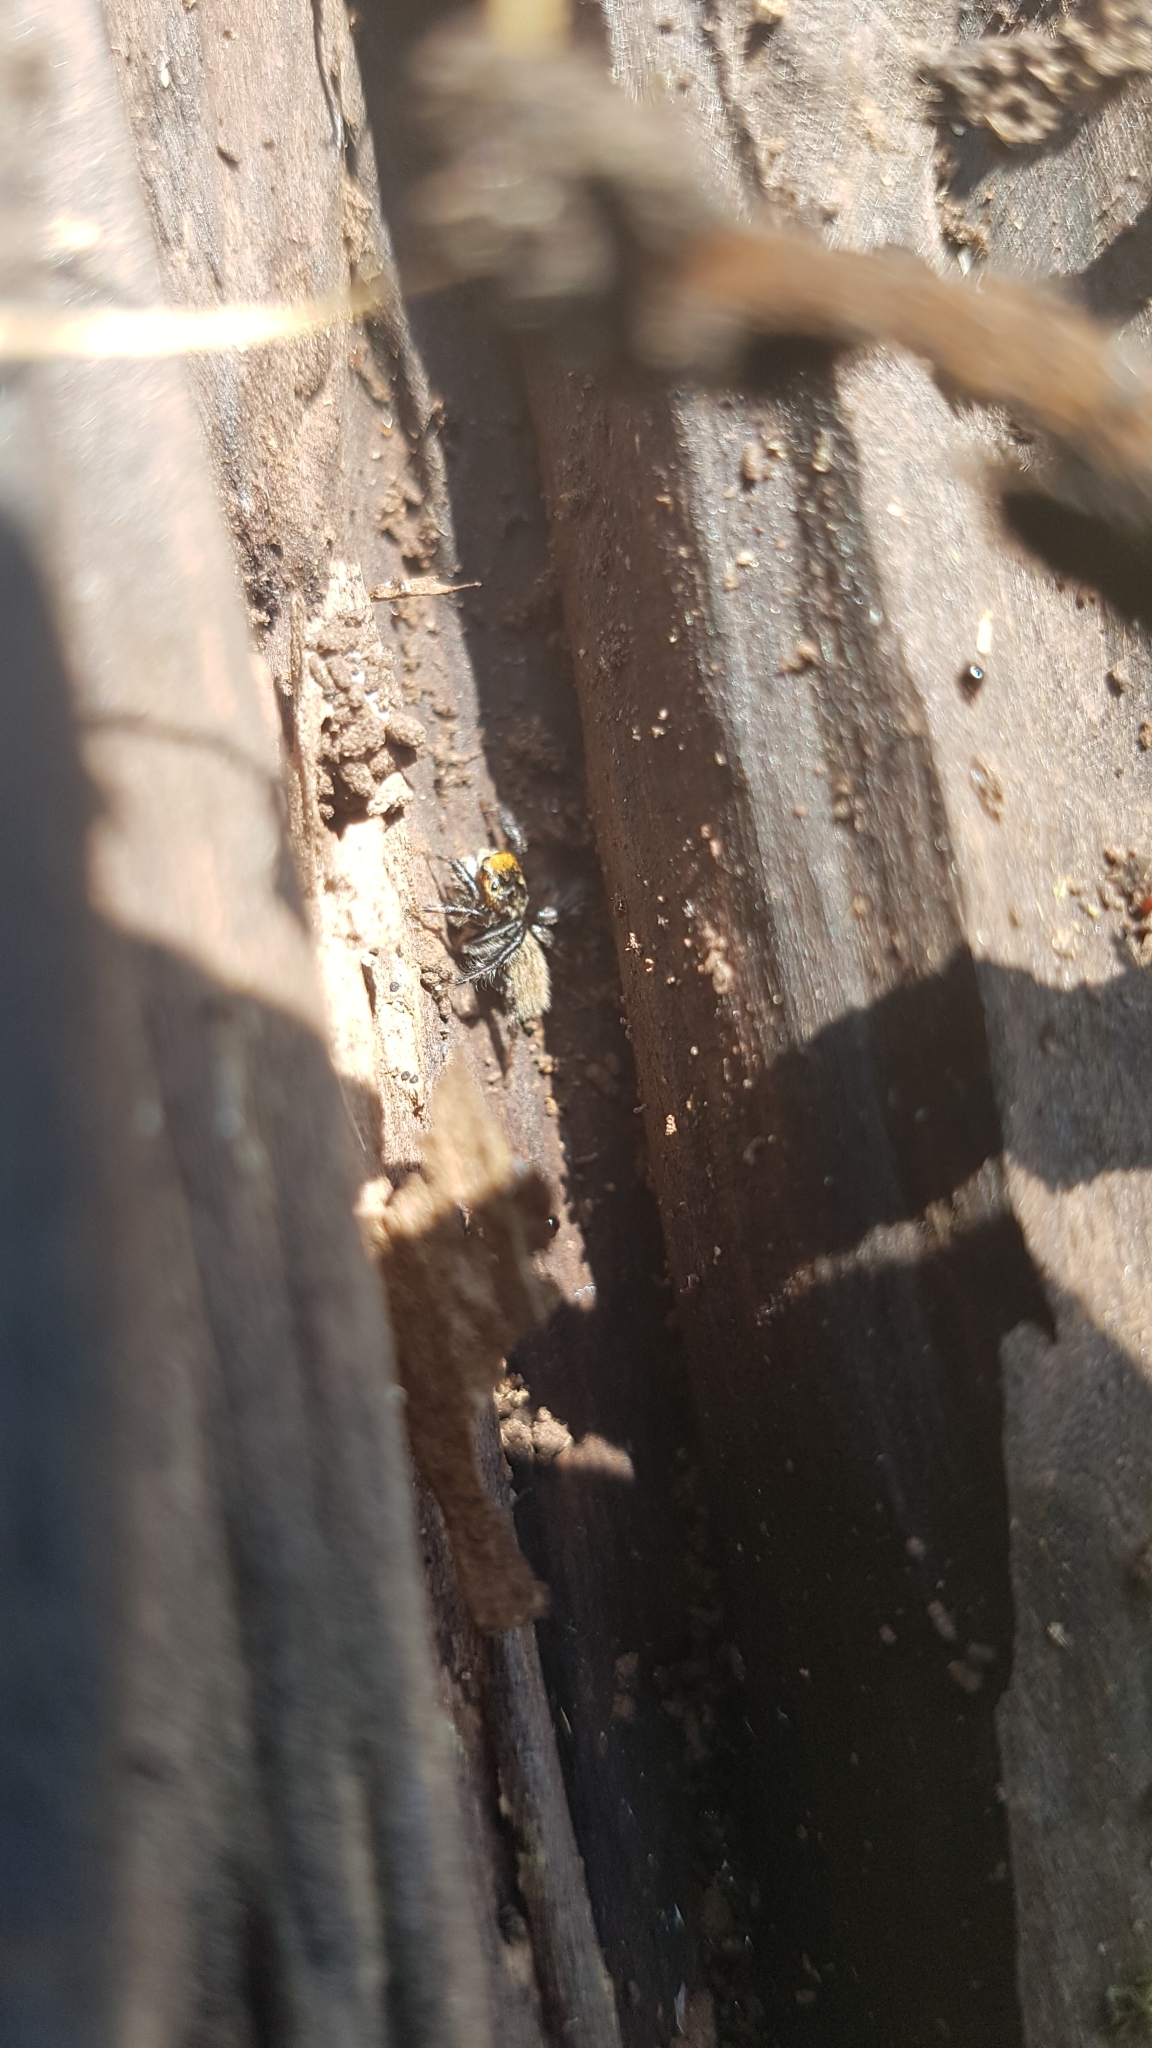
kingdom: Animalia
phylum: Arthropoda
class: Arachnida
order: Araneae
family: Salticidae
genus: Maratus
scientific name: Maratus griseus
